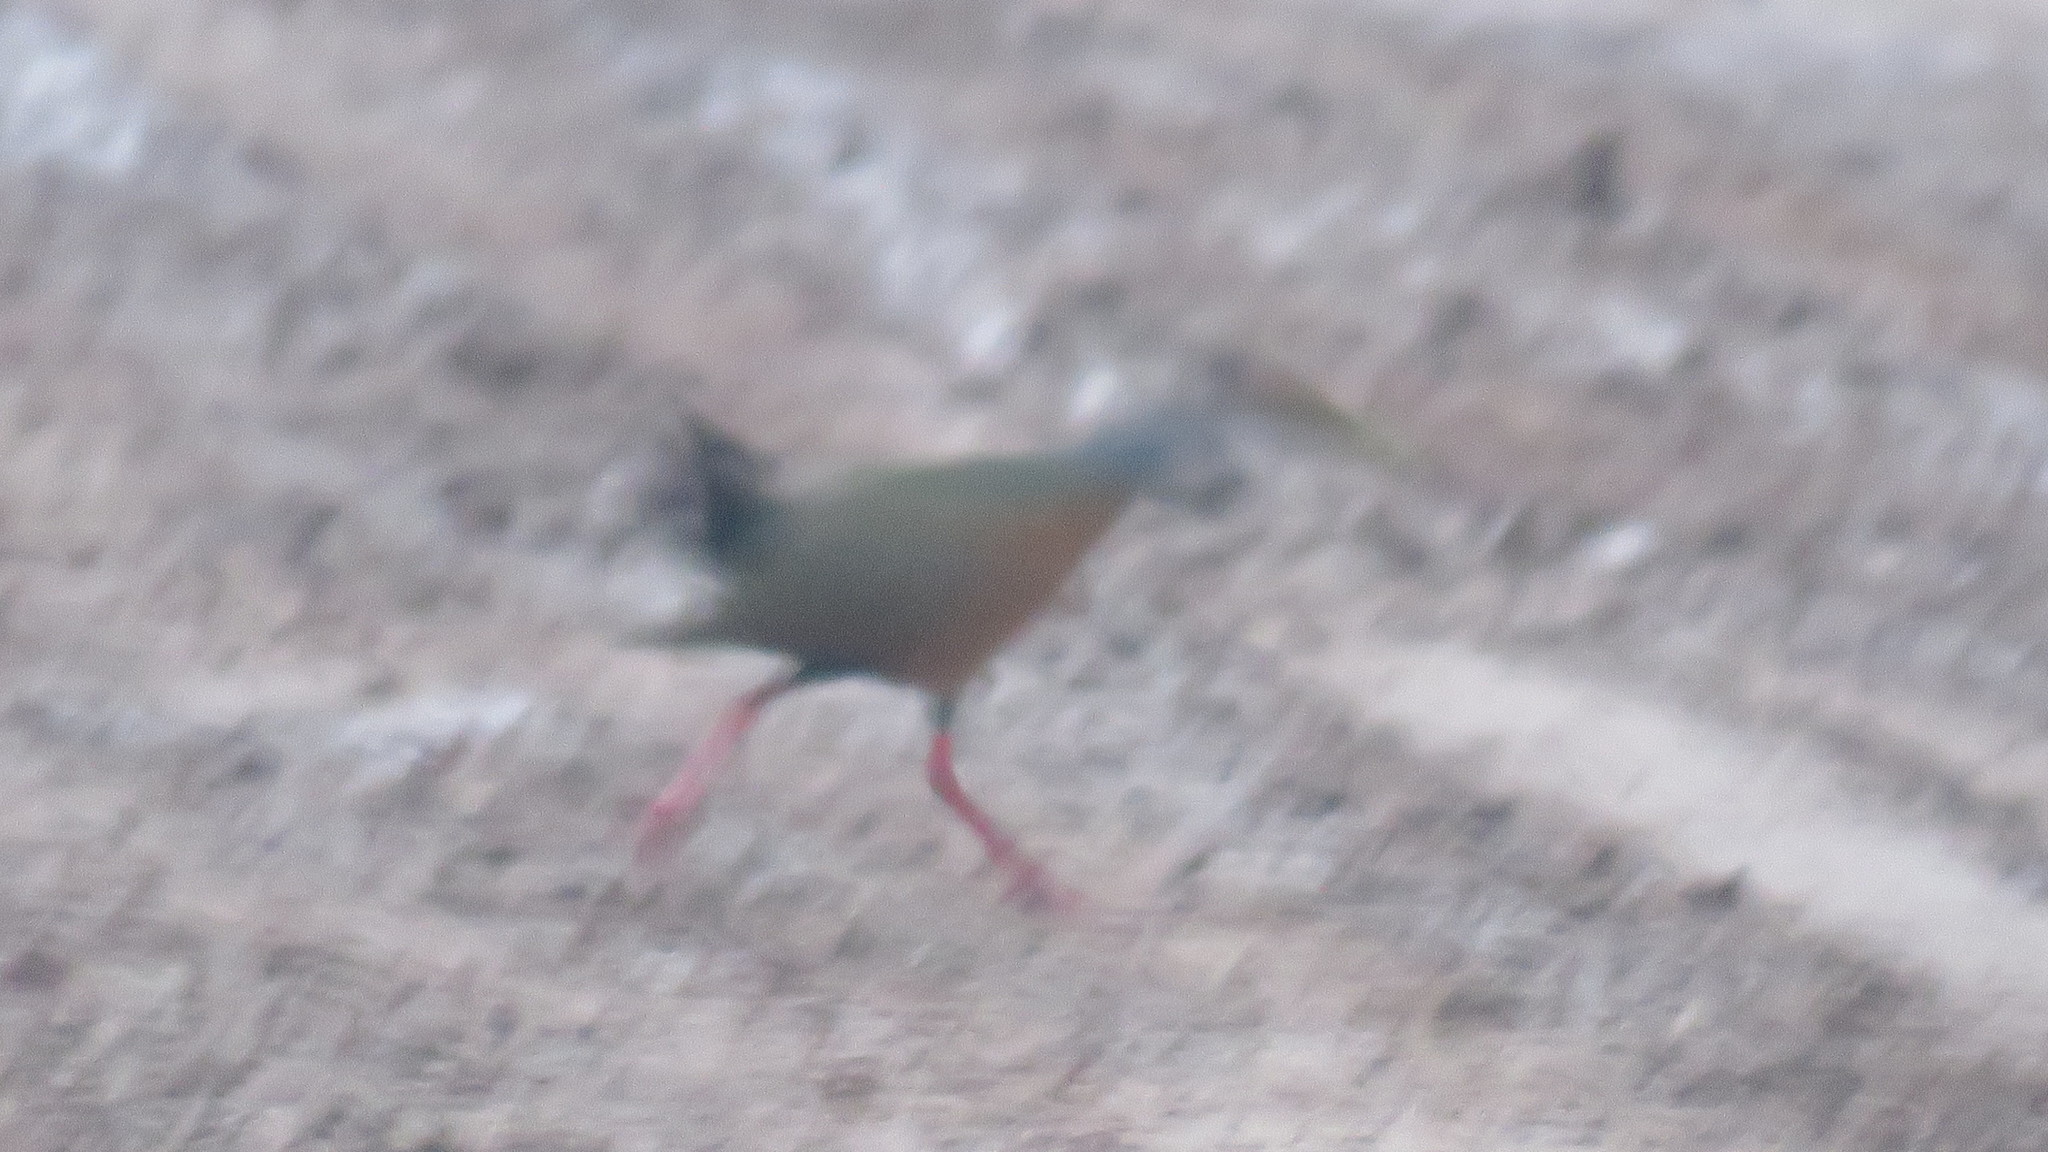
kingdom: Animalia
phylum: Chordata
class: Aves
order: Gruiformes
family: Rallidae
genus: Aramides
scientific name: Aramides cajanea
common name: Gray-necked wood-rail
